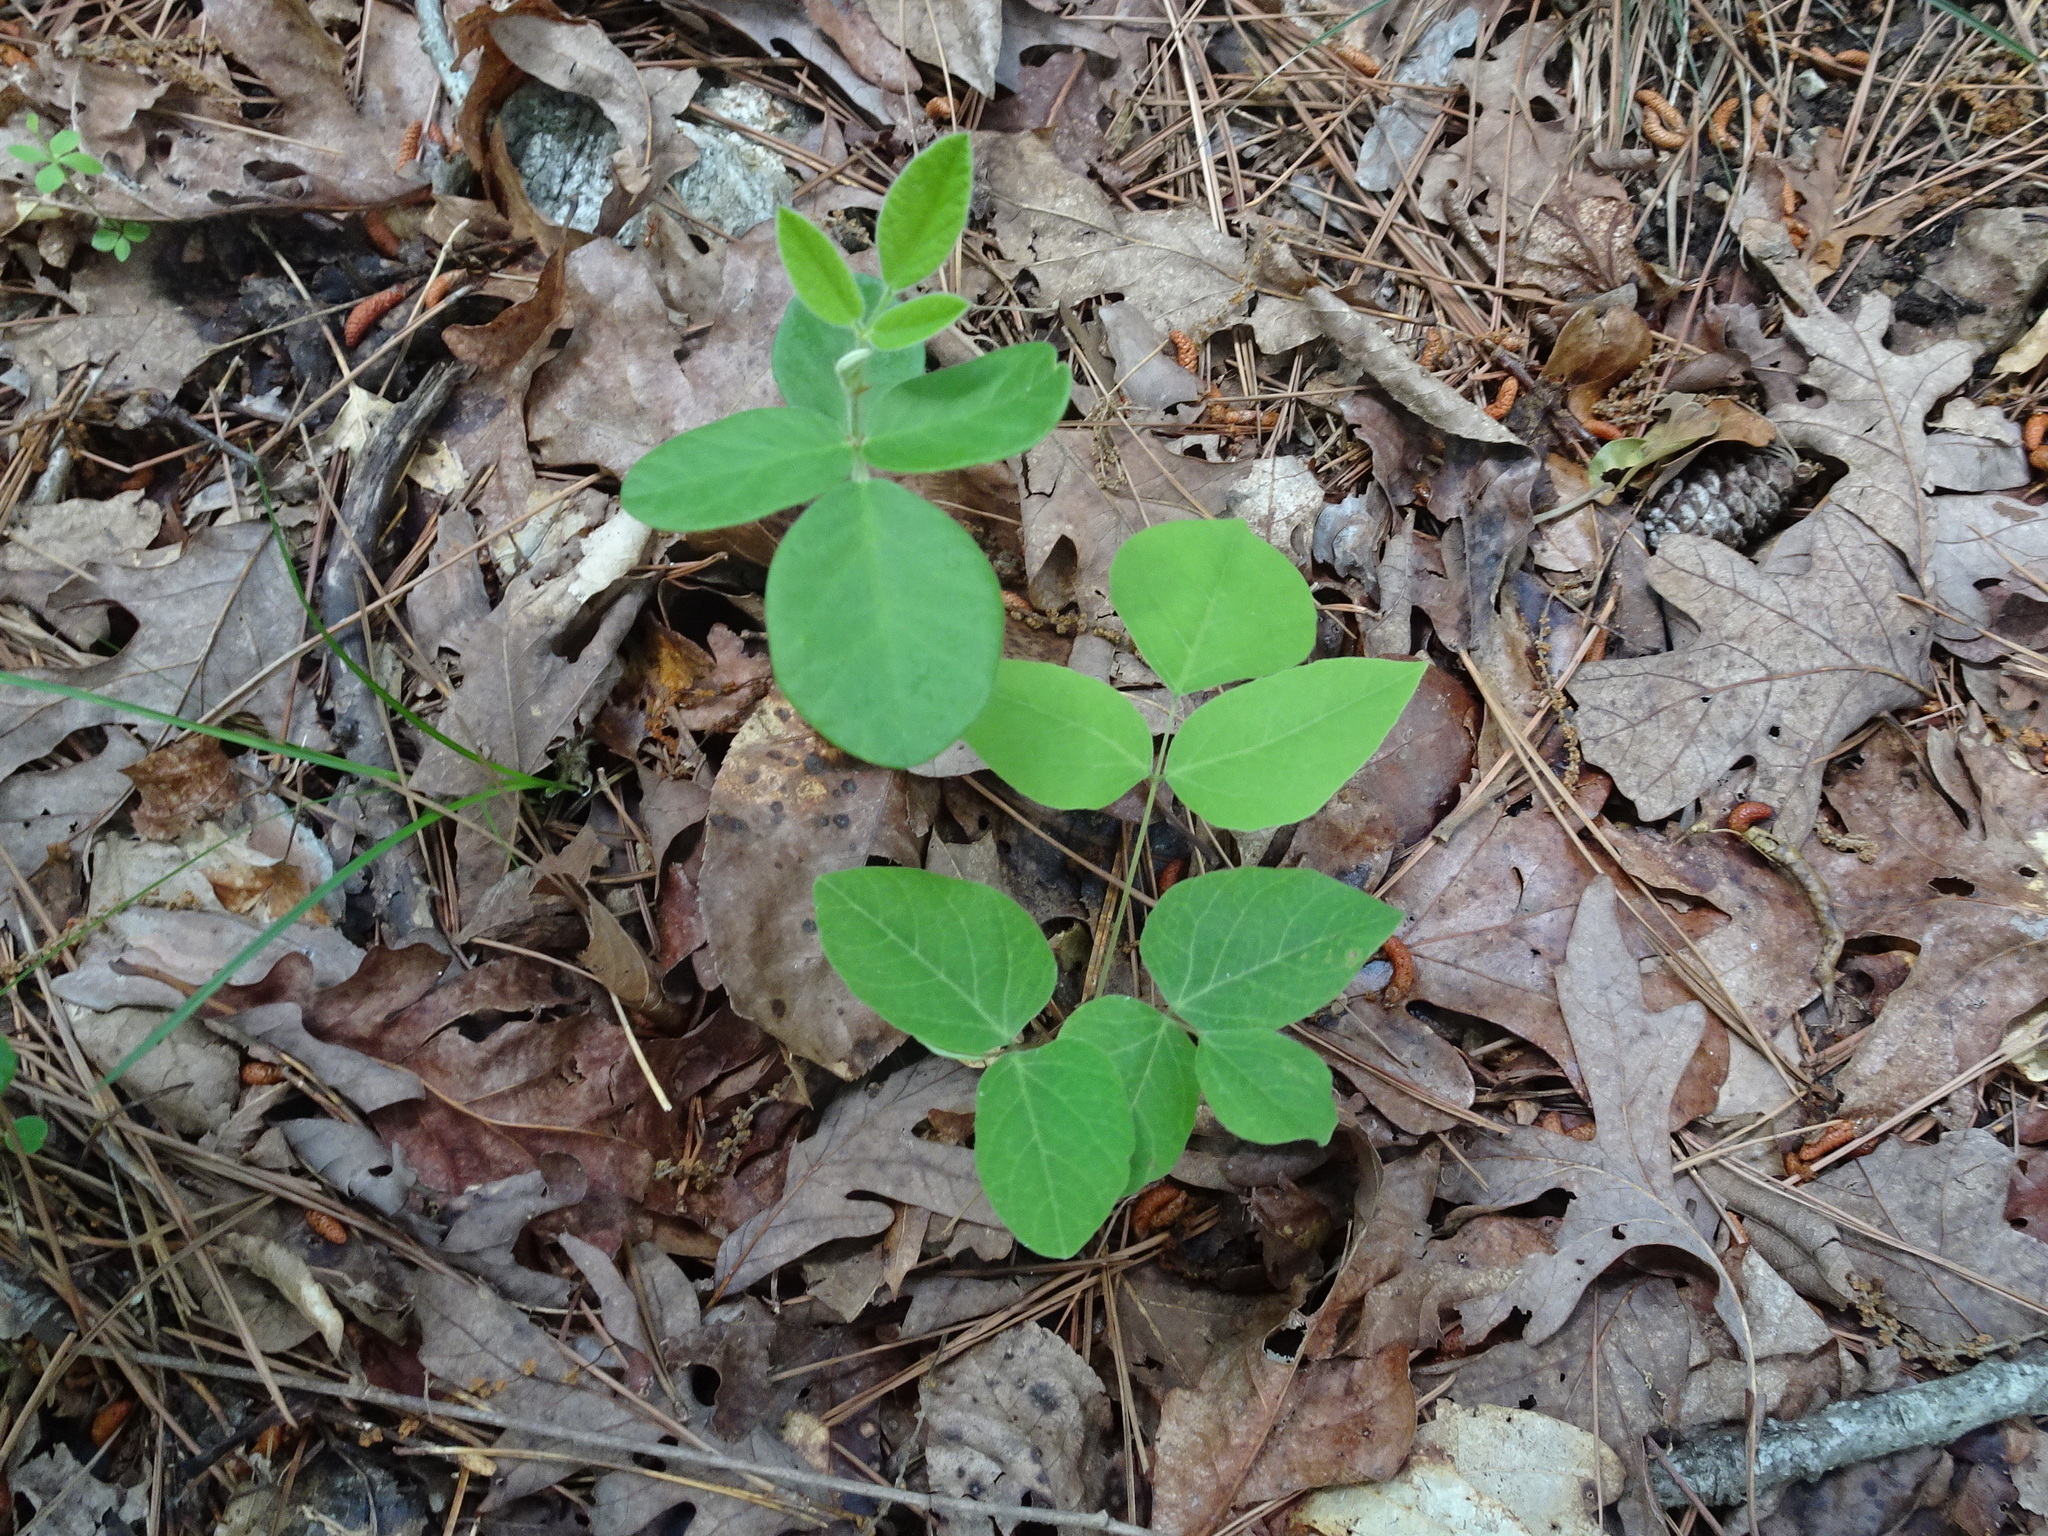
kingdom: Plantae
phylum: Tracheophyta
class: Magnoliopsida
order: Fabales
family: Fabaceae
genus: Hylodesmum
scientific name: Hylodesmum nudiflorum
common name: Bare-stemmed tick-trefoil
